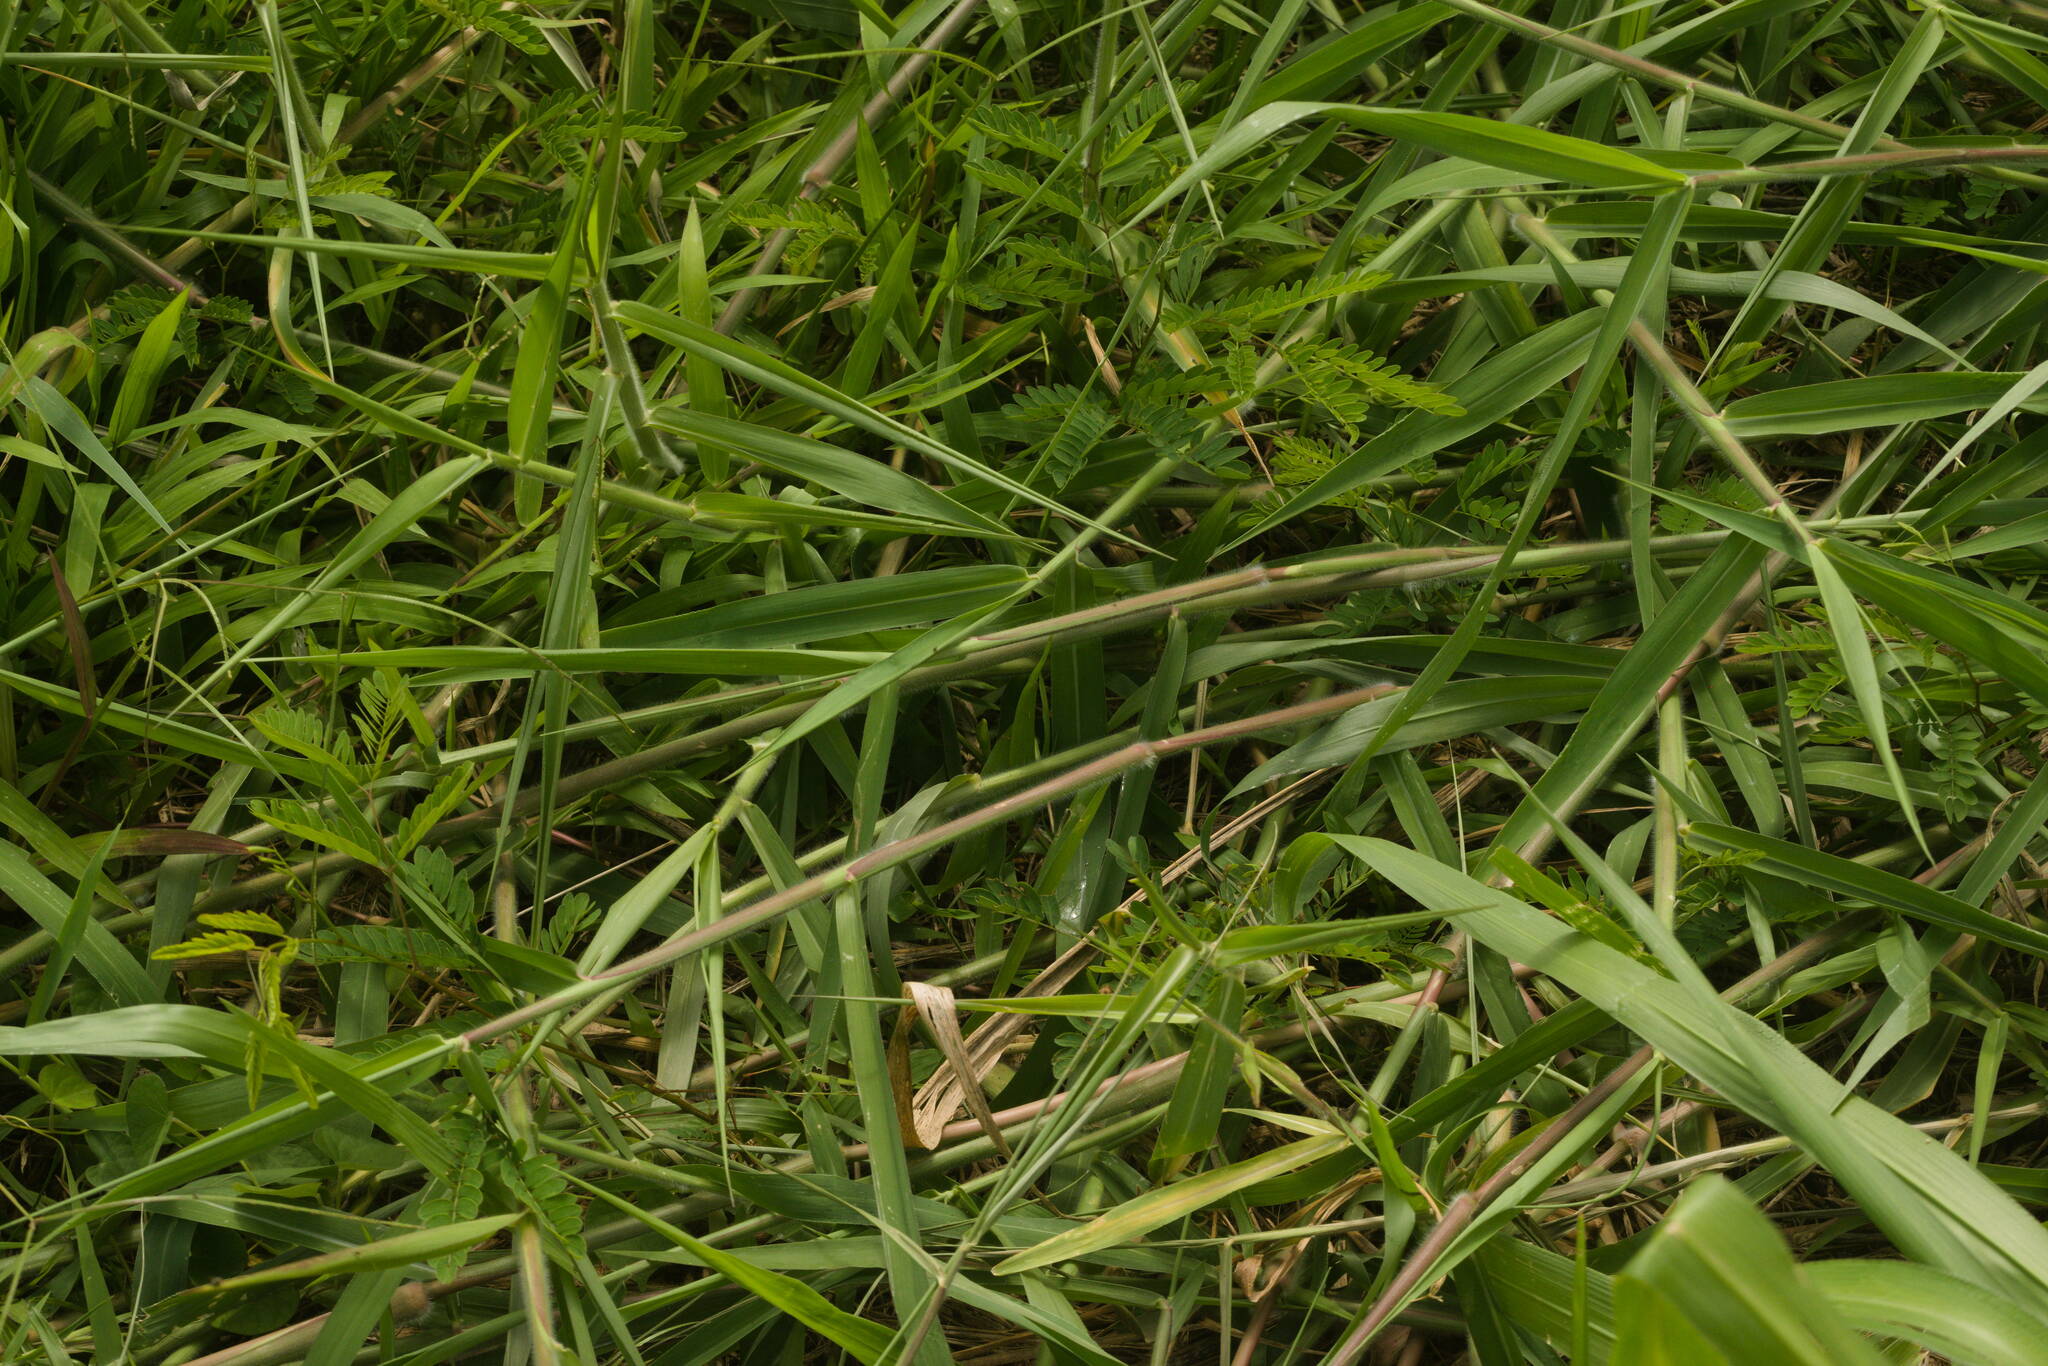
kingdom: Plantae
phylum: Tracheophyta
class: Liliopsida
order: Poales
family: Poaceae
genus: Urochloa
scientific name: Urochloa mutica
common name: Para grass
